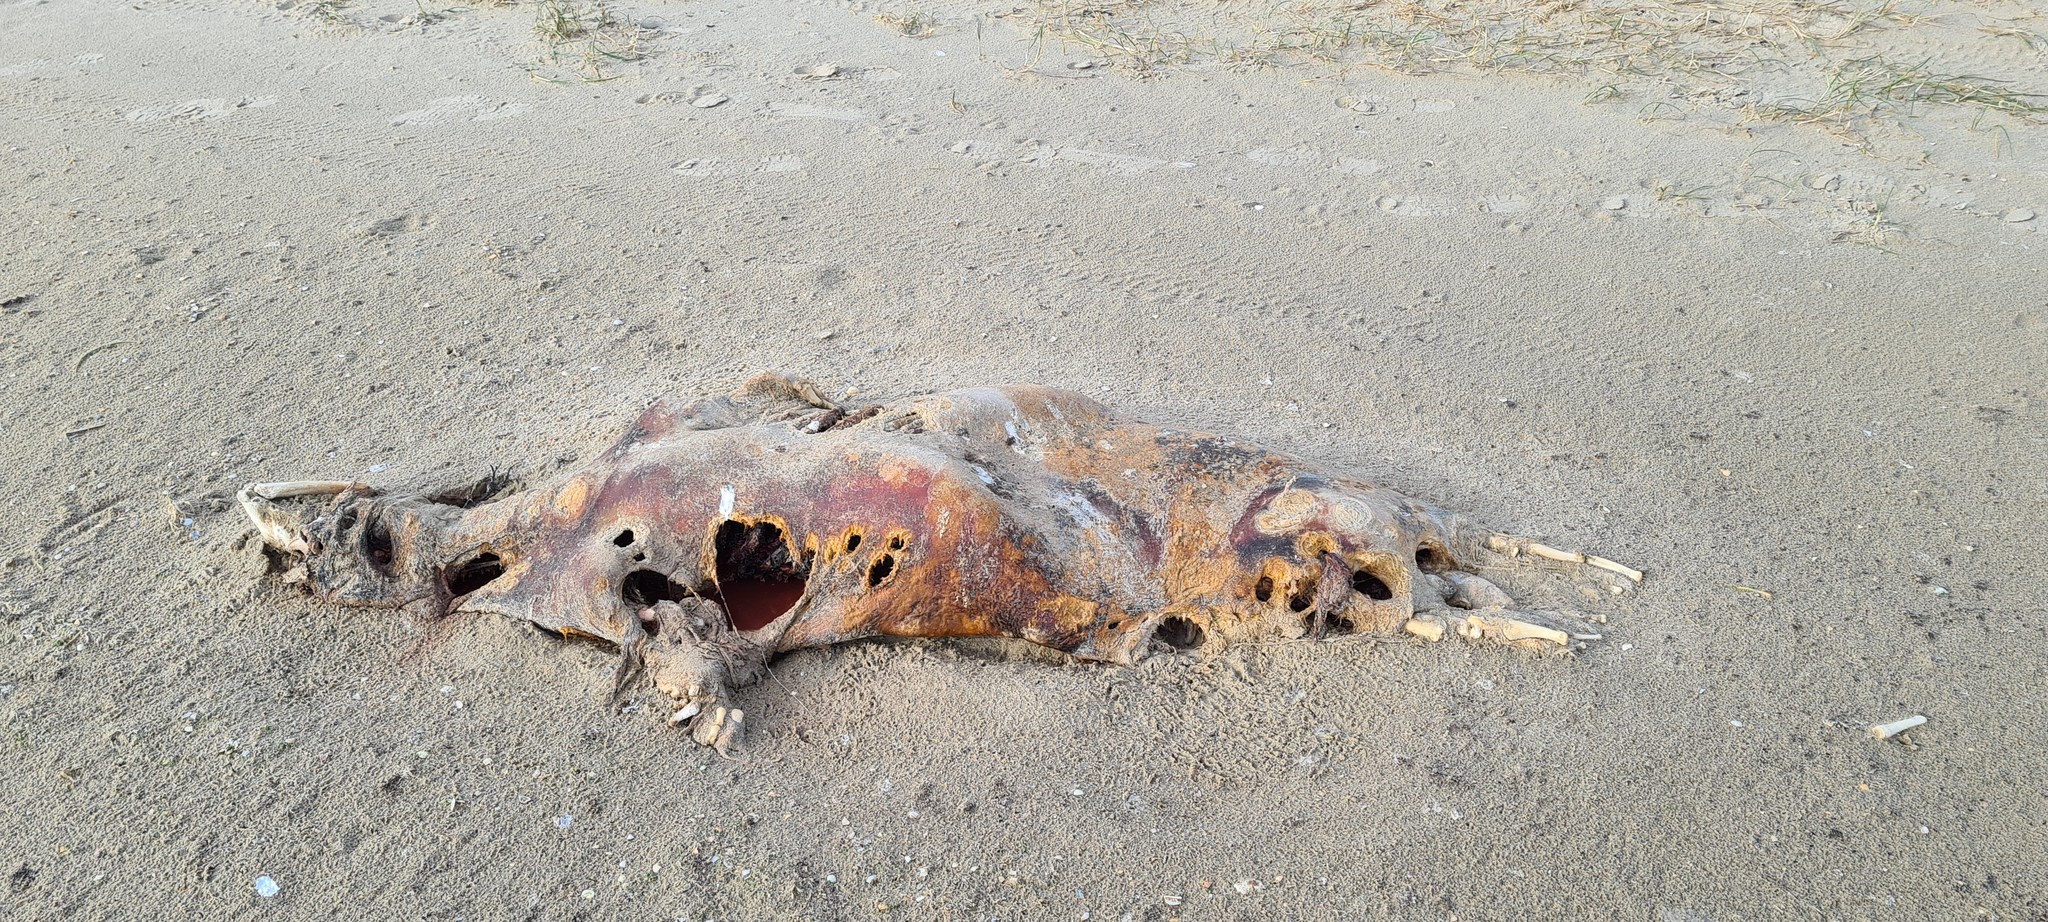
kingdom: Animalia
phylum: Chordata
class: Mammalia
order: Carnivora
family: Phocidae
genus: Halichoerus
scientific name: Halichoerus grypus
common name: Grey seal
